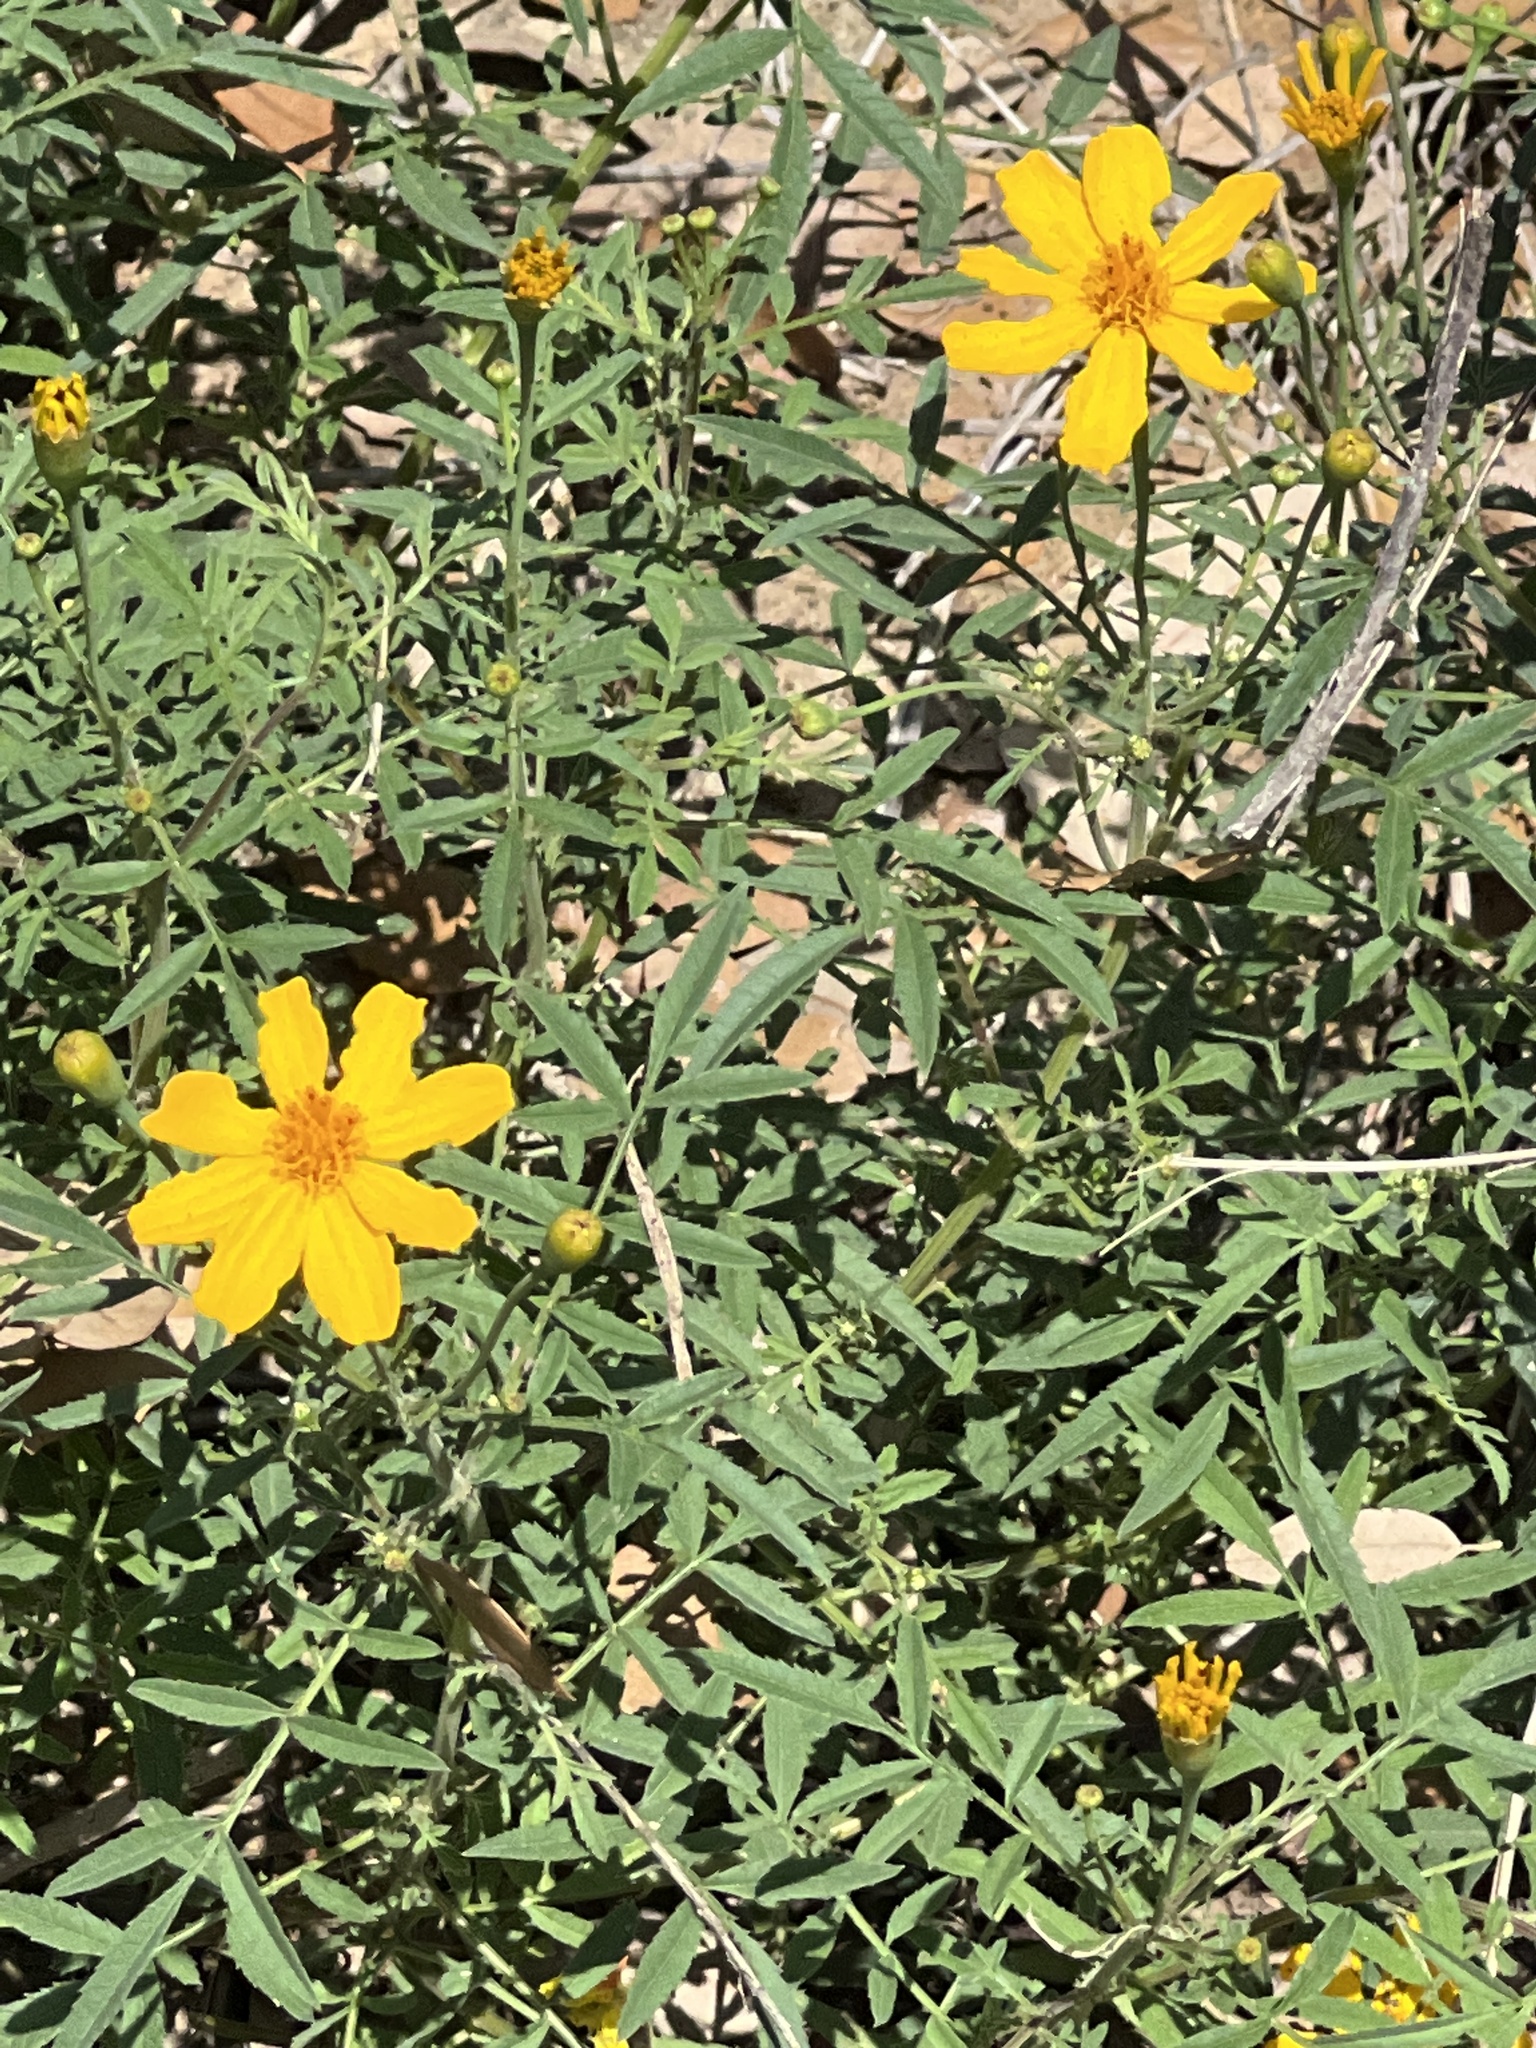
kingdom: Plantae
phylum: Tracheophyta
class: Magnoliopsida
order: Asterales
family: Asteraceae
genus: Wedelia
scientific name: Wedelia acapulcensis
